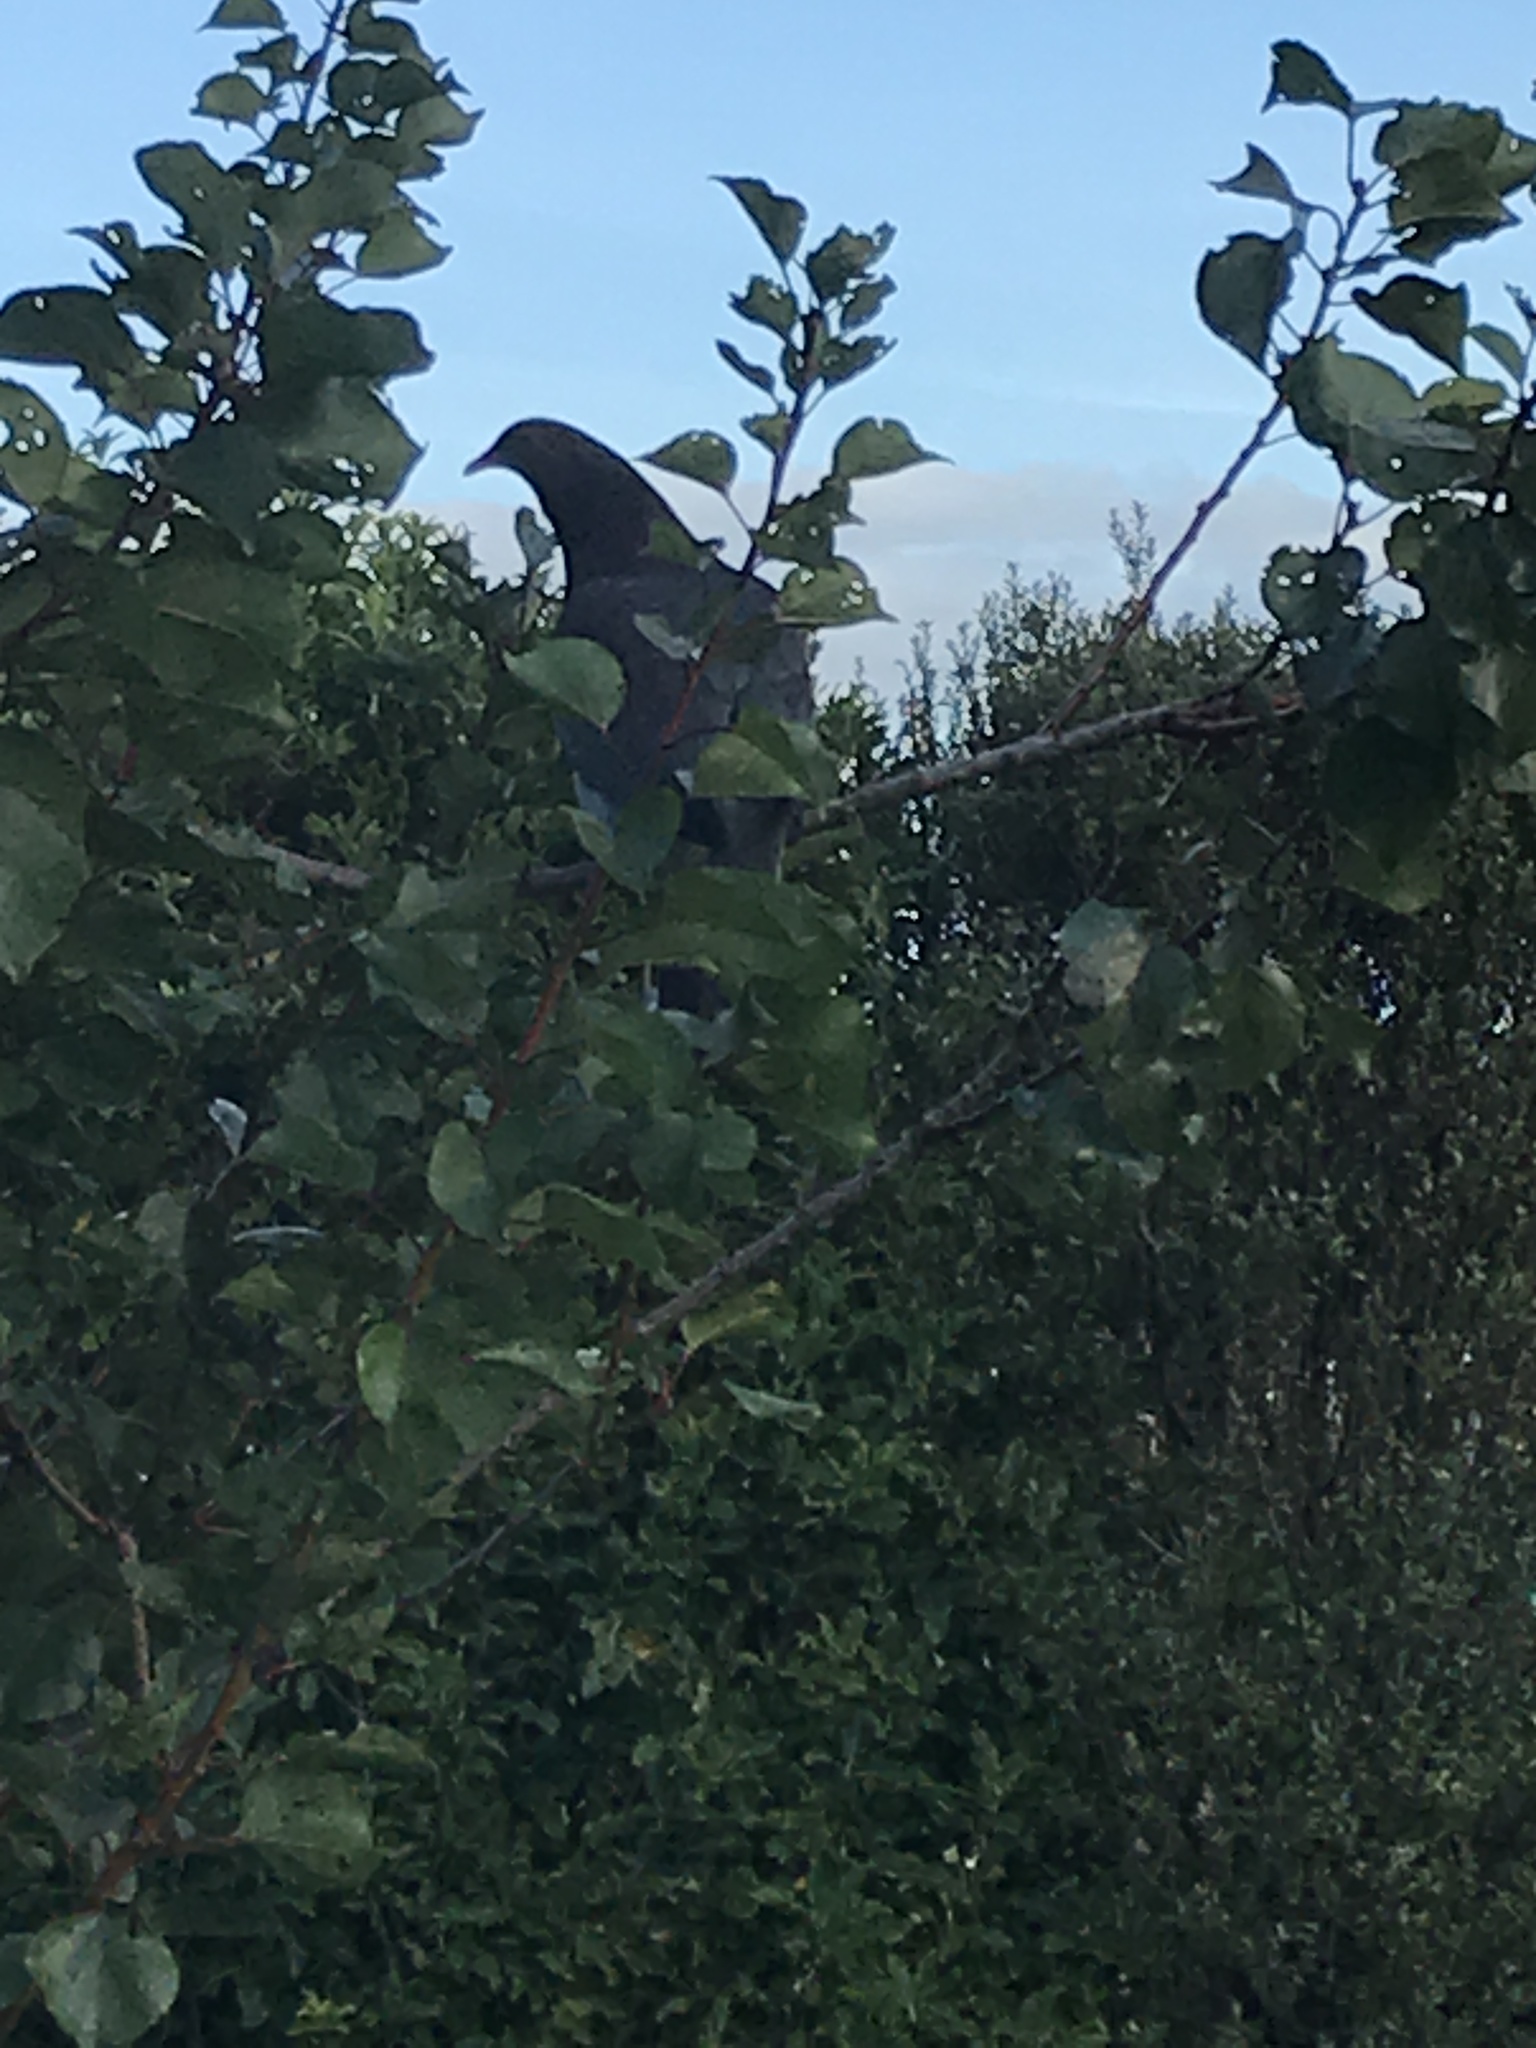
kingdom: Animalia
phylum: Chordata
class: Aves
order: Columbiformes
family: Columbidae
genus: Hemiphaga
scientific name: Hemiphaga novaeseelandiae
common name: New zealand pigeon
